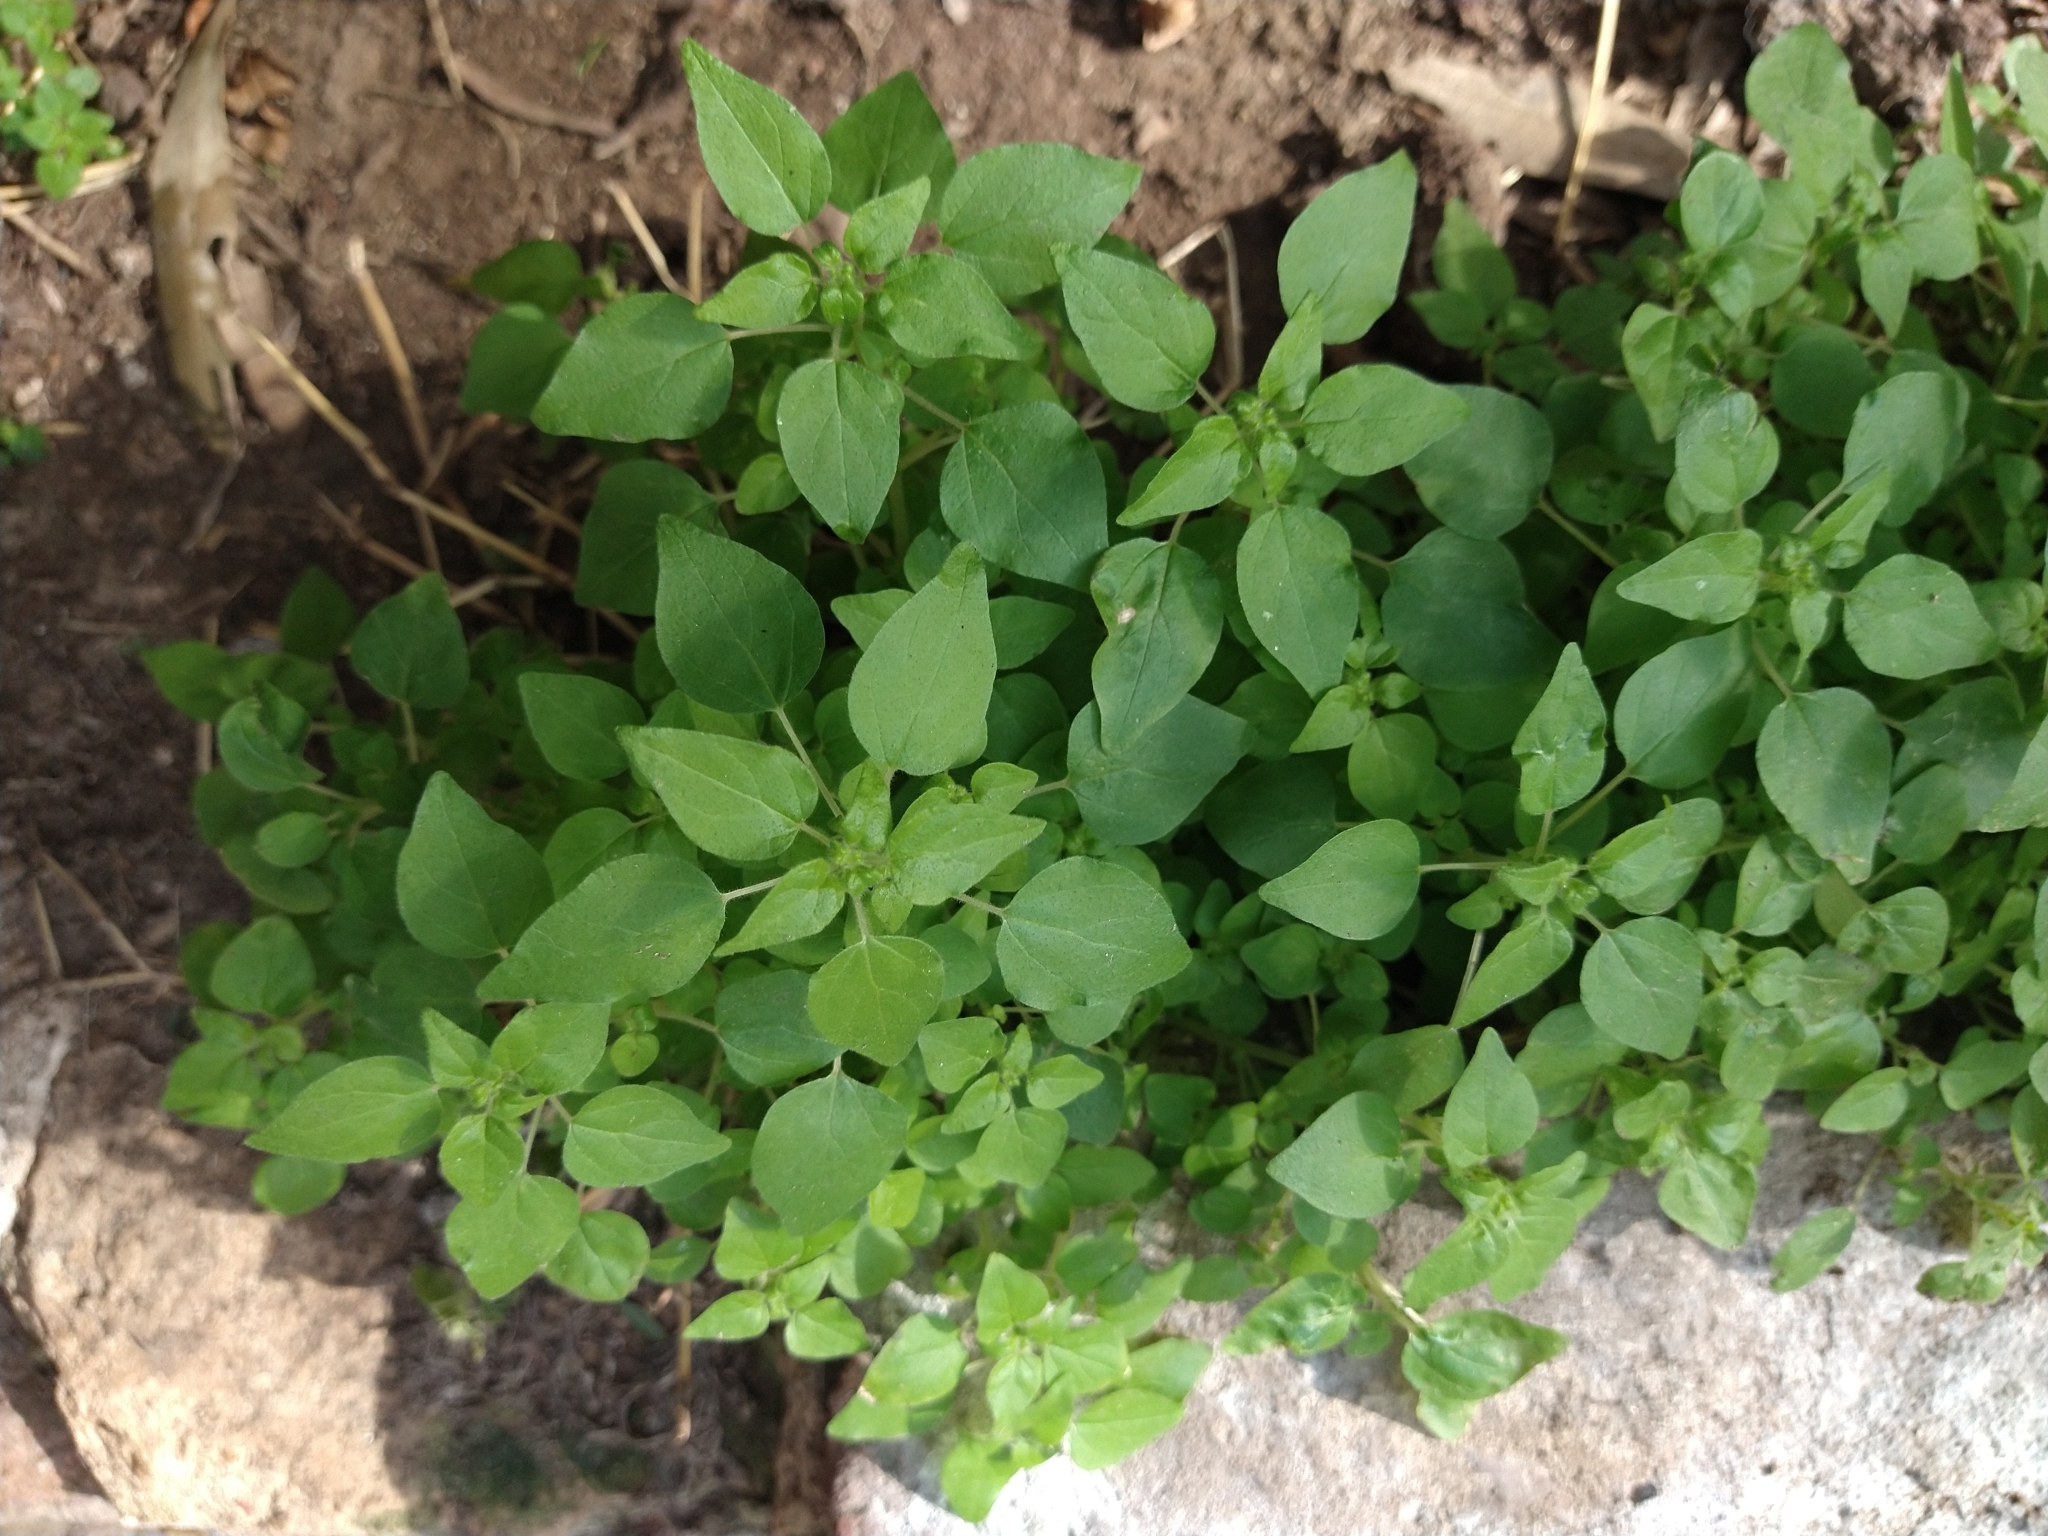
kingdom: Plantae
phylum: Tracheophyta
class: Magnoliopsida
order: Rosales
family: Urticaceae
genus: Parietaria
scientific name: Parietaria debilis
